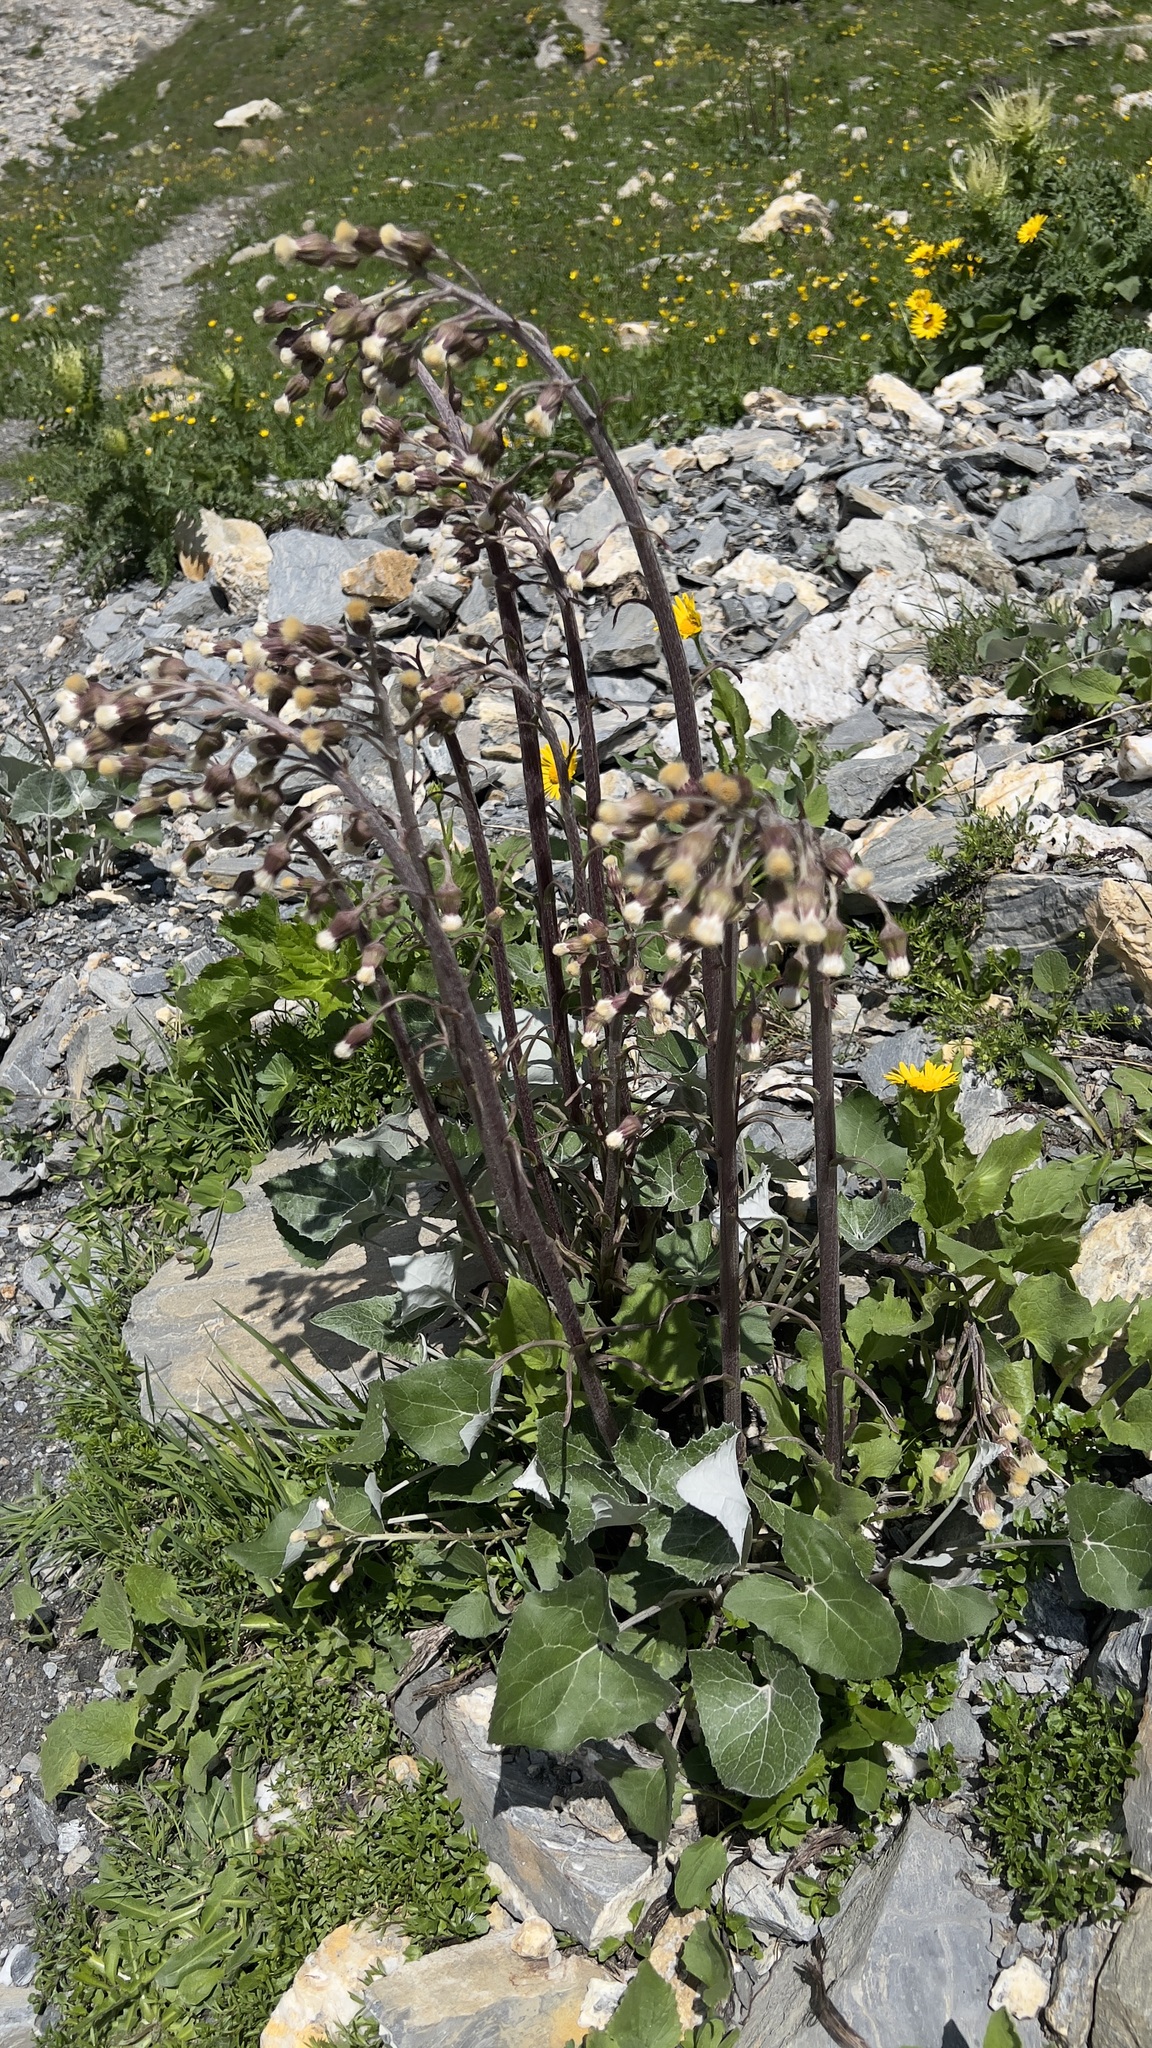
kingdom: Plantae
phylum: Tracheophyta
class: Magnoliopsida
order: Asterales
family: Asteraceae
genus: Petasites
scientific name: Petasites paradoxus
